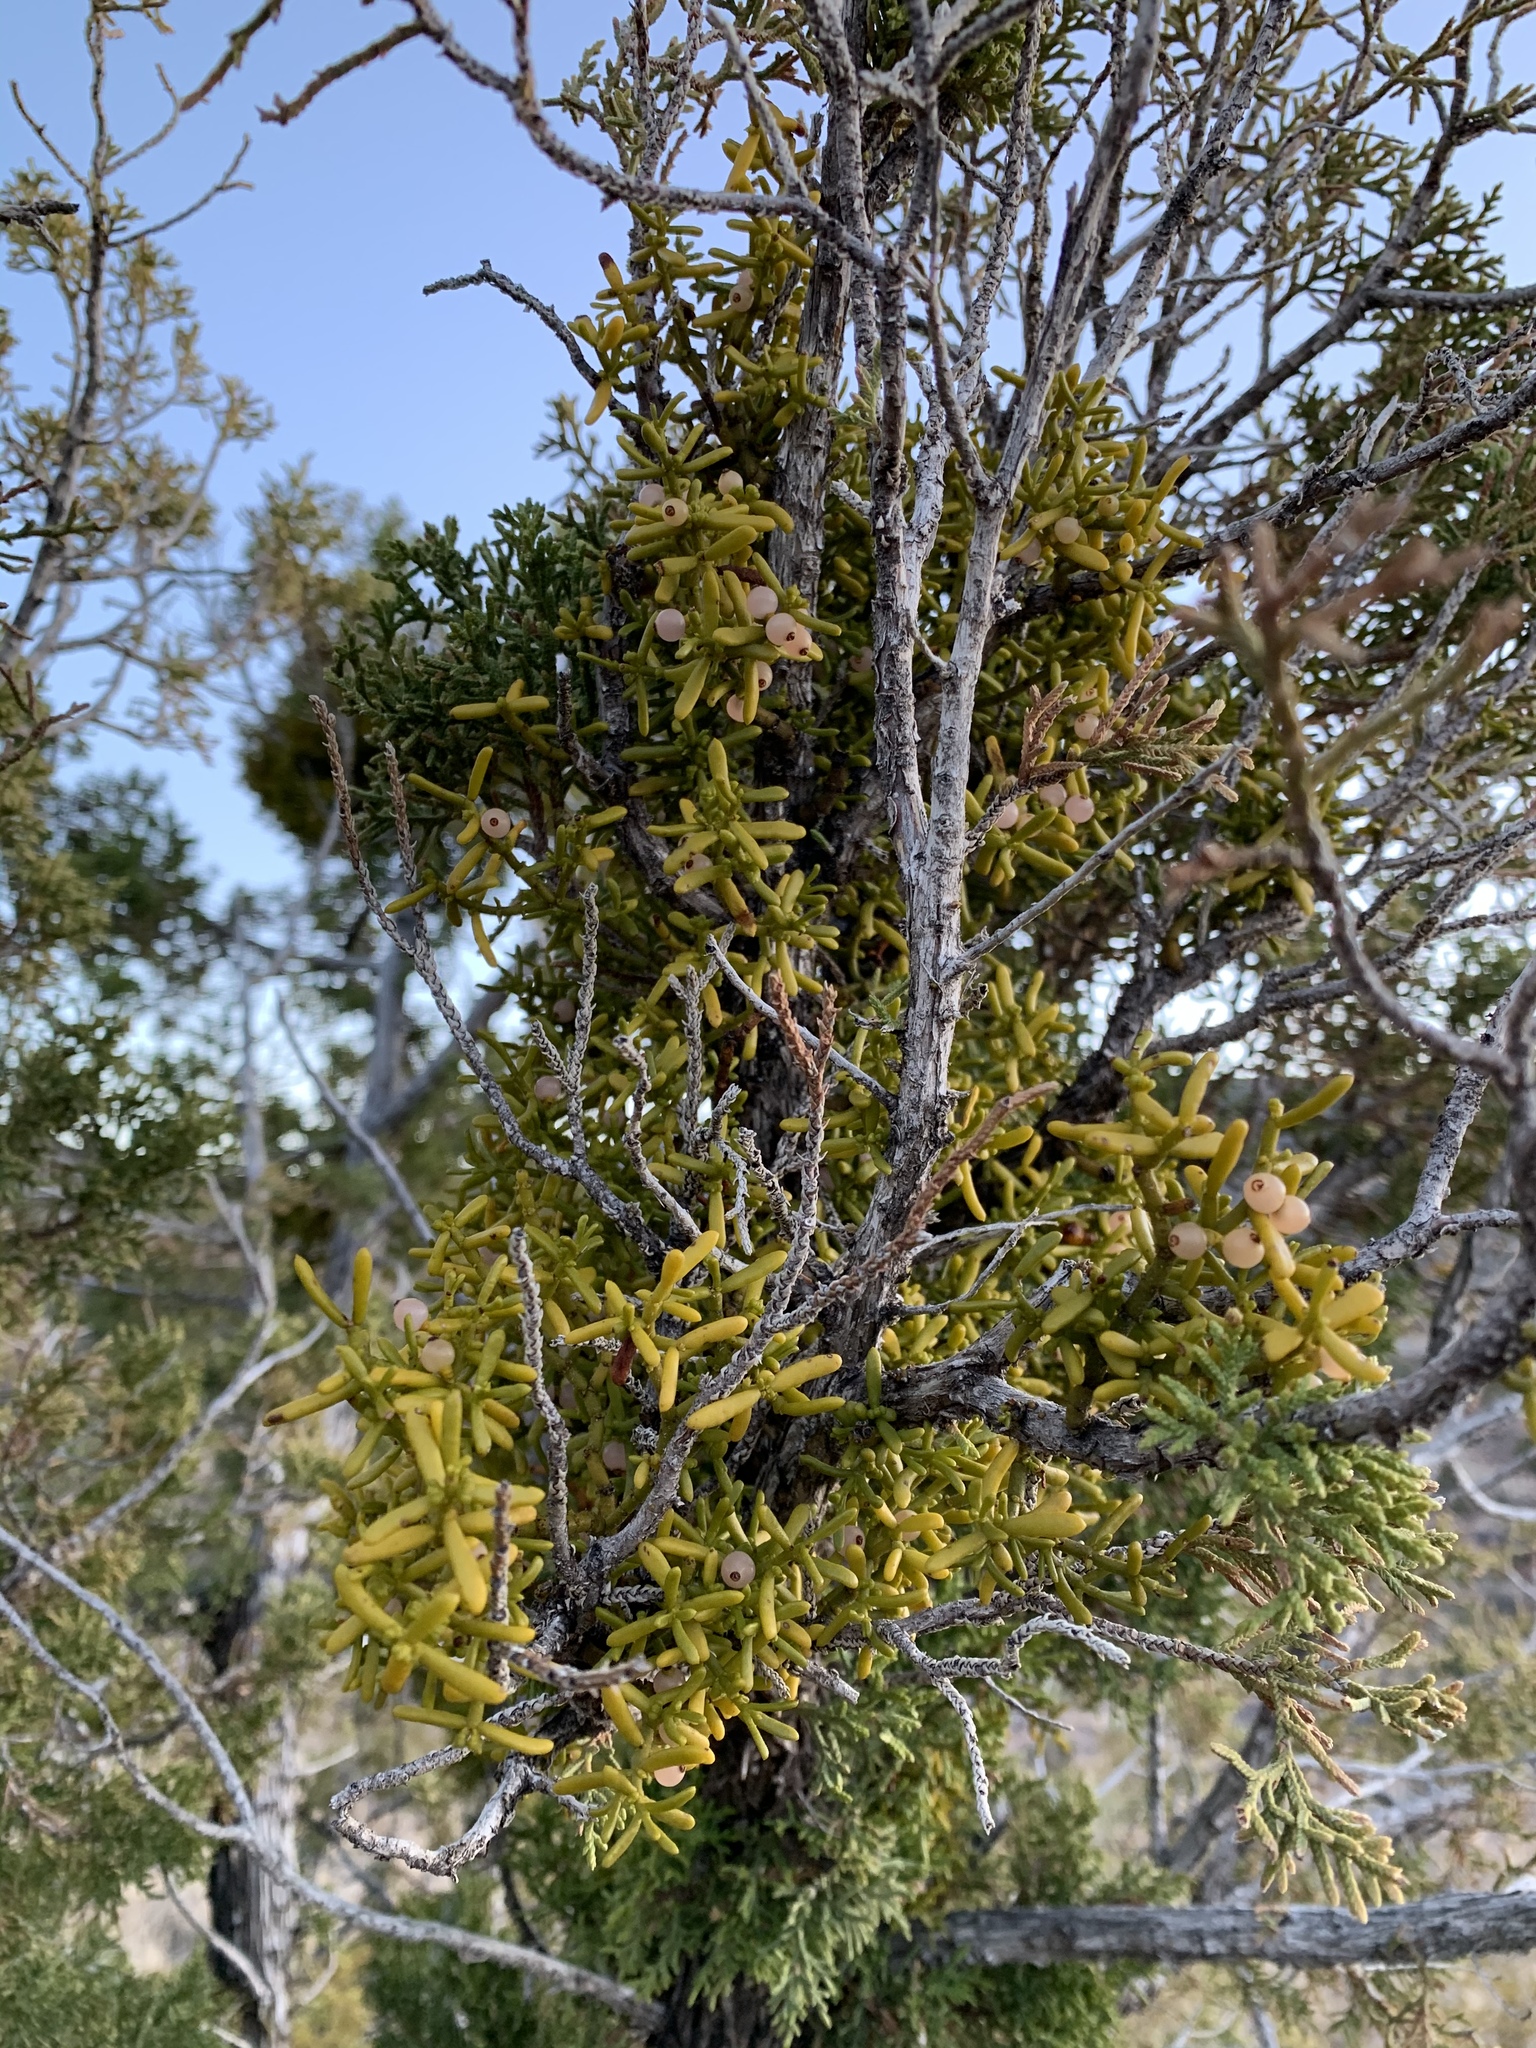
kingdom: Plantae
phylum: Tracheophyta
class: Magnoliopsida
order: Santalales
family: Viscaceae
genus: Phoradendron
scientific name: Phoradendron hawksworthii
